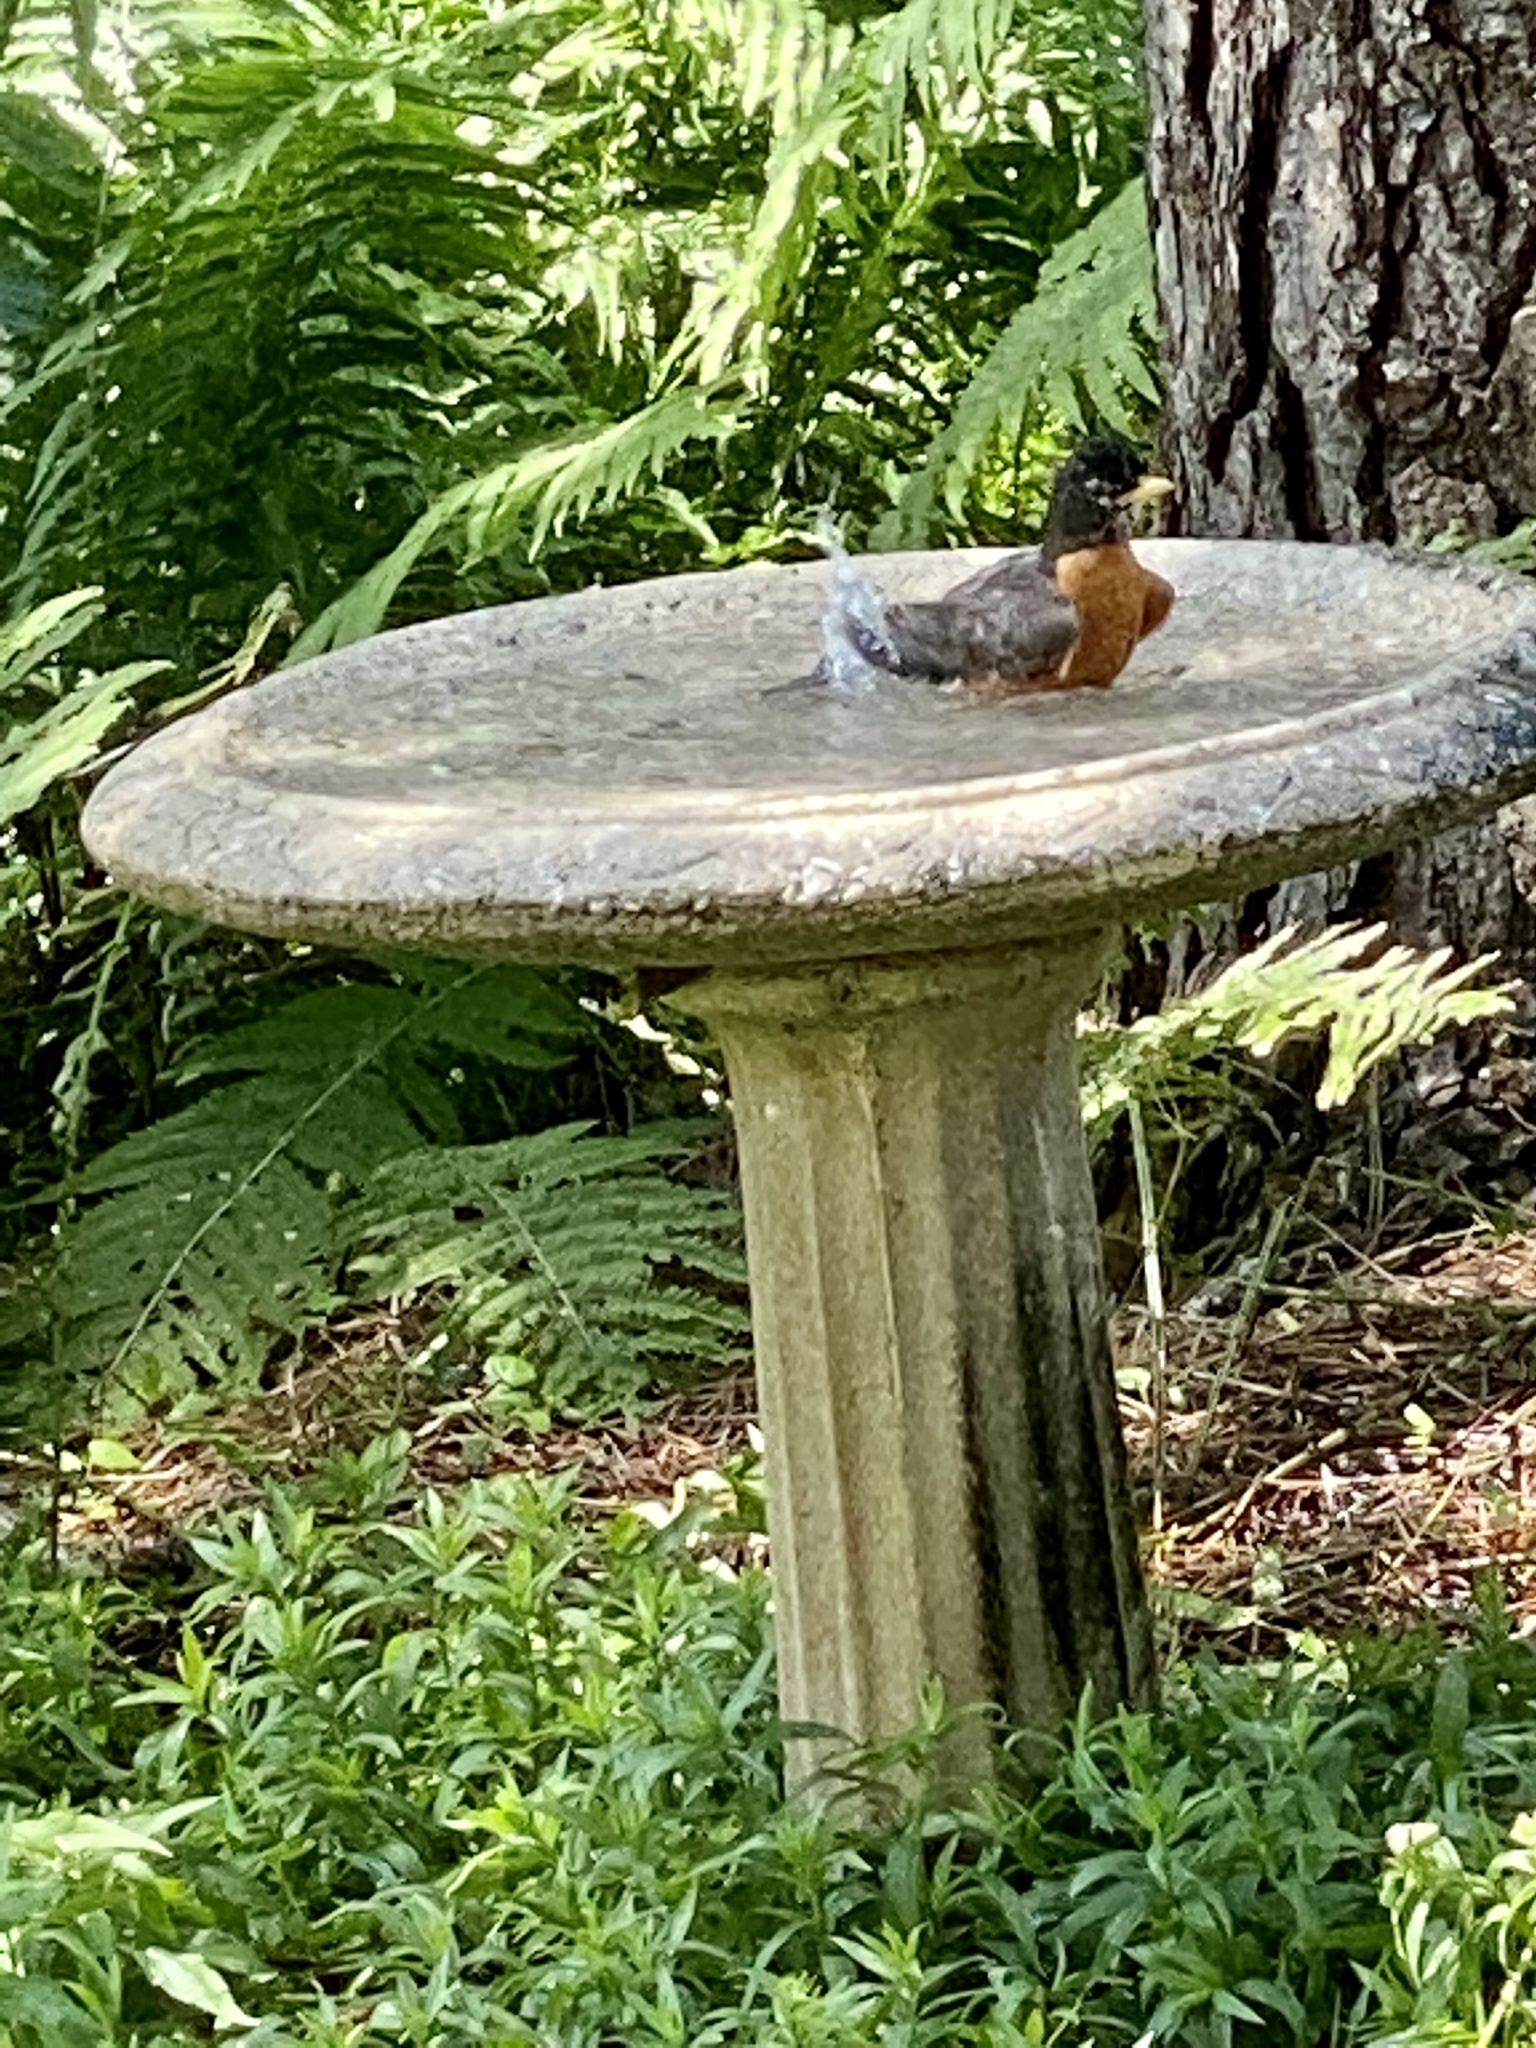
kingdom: Animalia
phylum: Chordata
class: Aves
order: Passeriformes
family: Turdidae
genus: Turdus
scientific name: Turdus migratorius
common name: American robin
